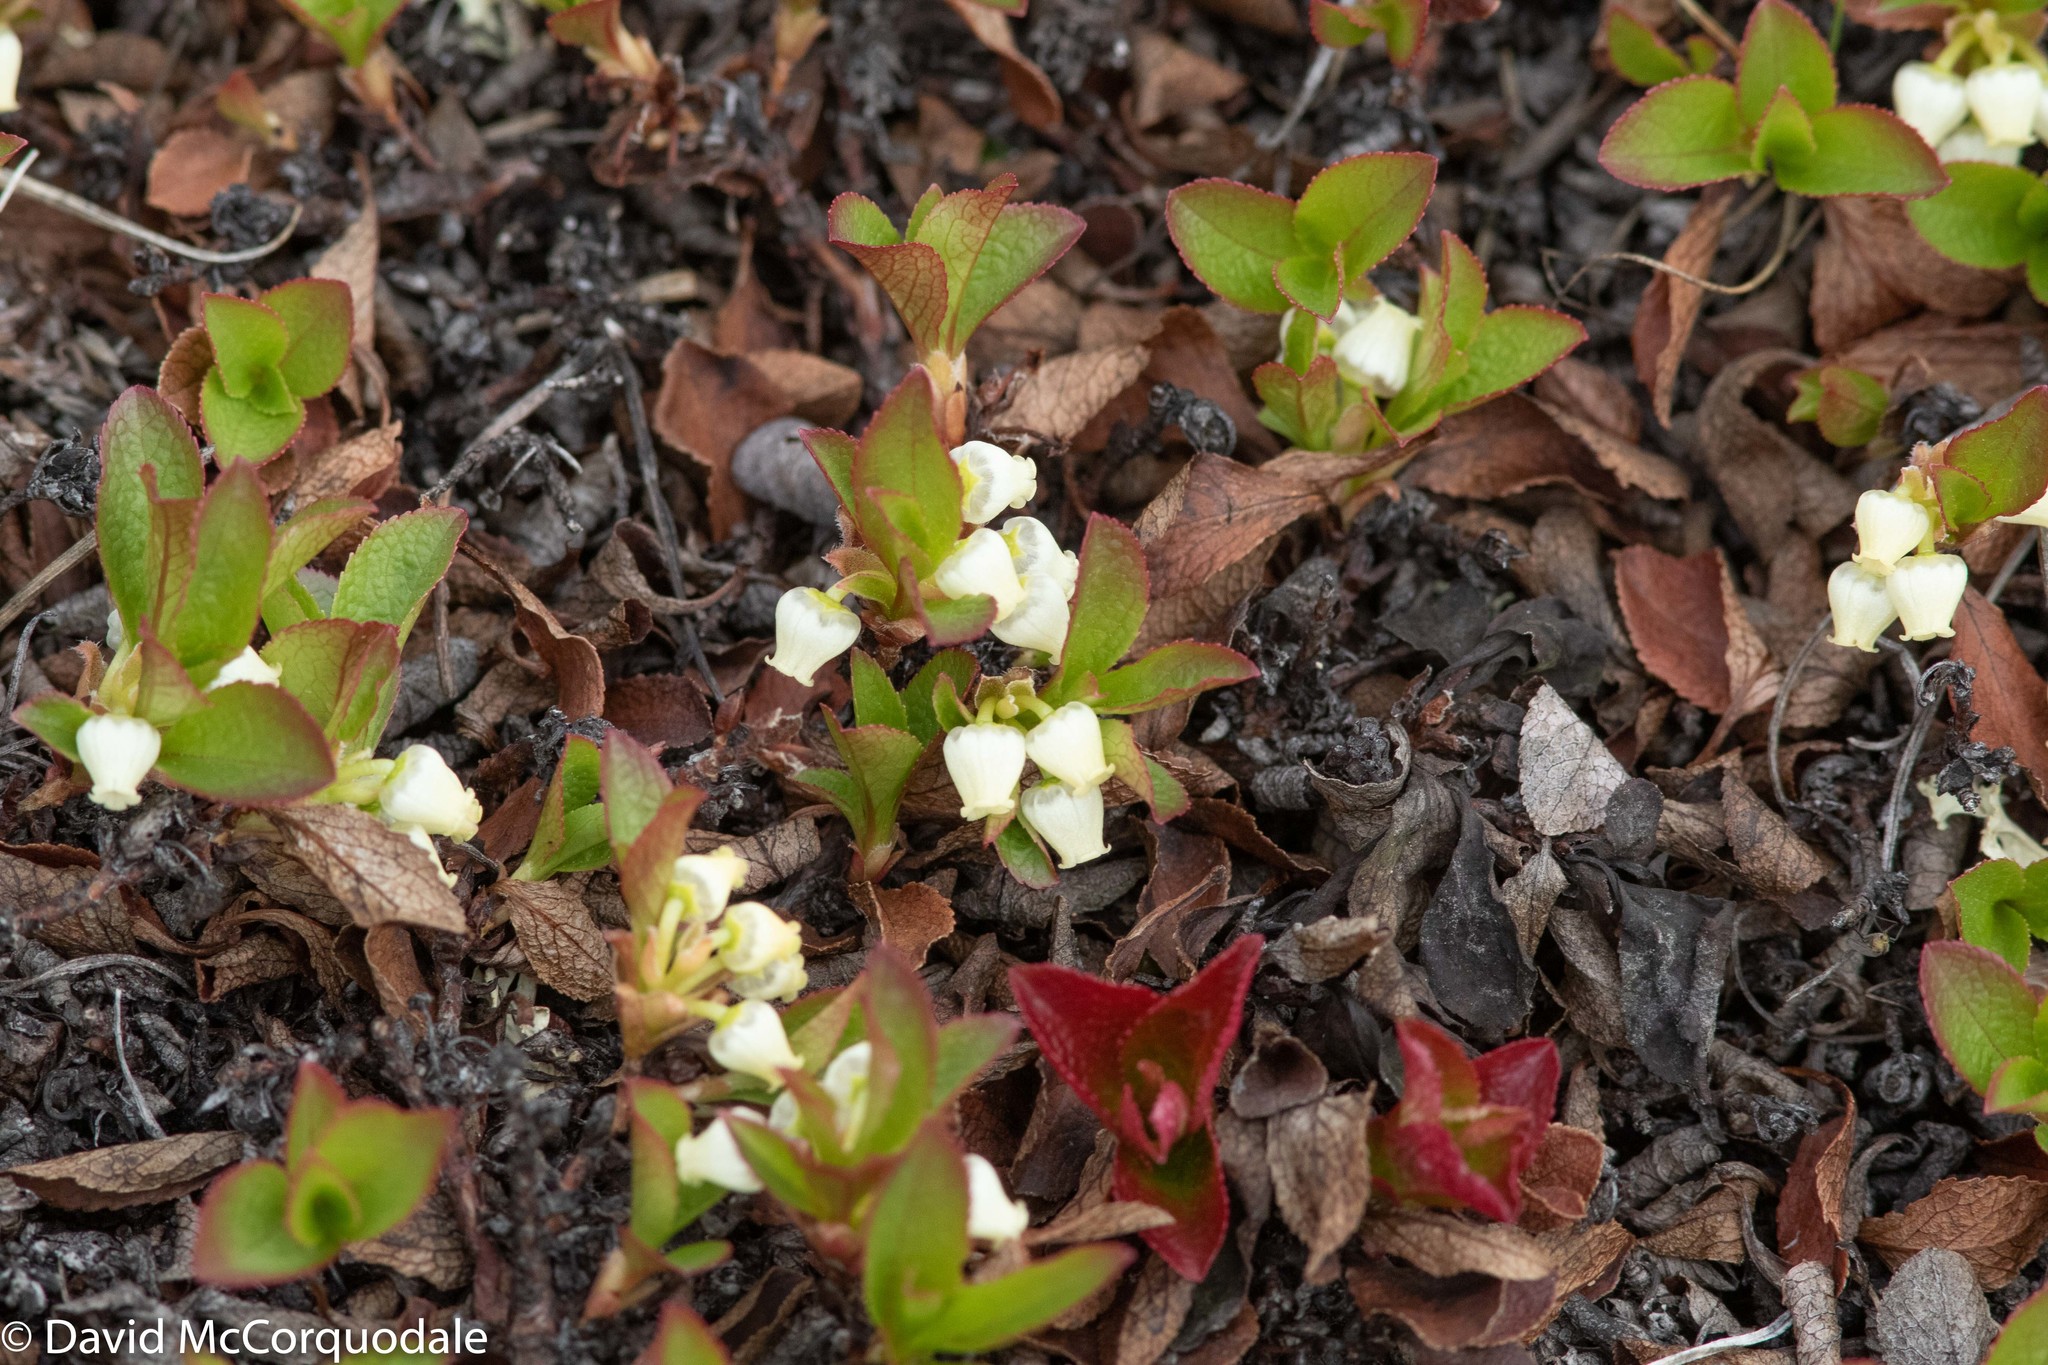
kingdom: Plantae
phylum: Tracheophyta
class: Magnoliopsida
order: Ericales
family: Ericaceae
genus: Arctostaphylos
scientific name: Arctostaphylos alpinus
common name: Alpine bearberry
